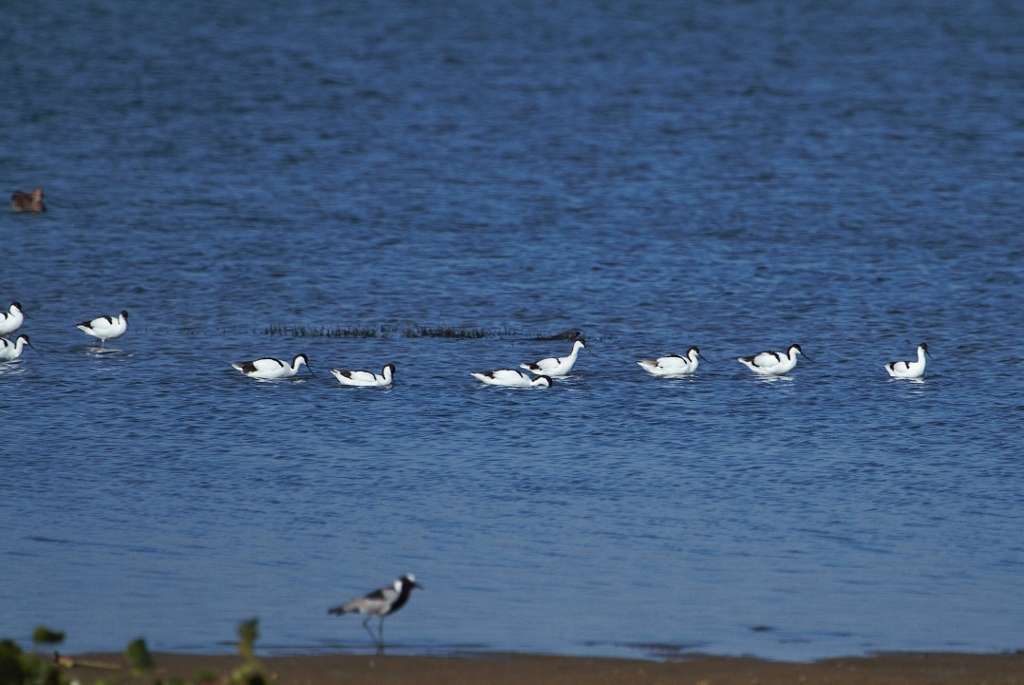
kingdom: Animalia
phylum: Chordata
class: Aves
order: Charadriiformes
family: Recurvirostridae
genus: Recurvirostra
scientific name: Recurvirostra avosetta
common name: Pied avocet
